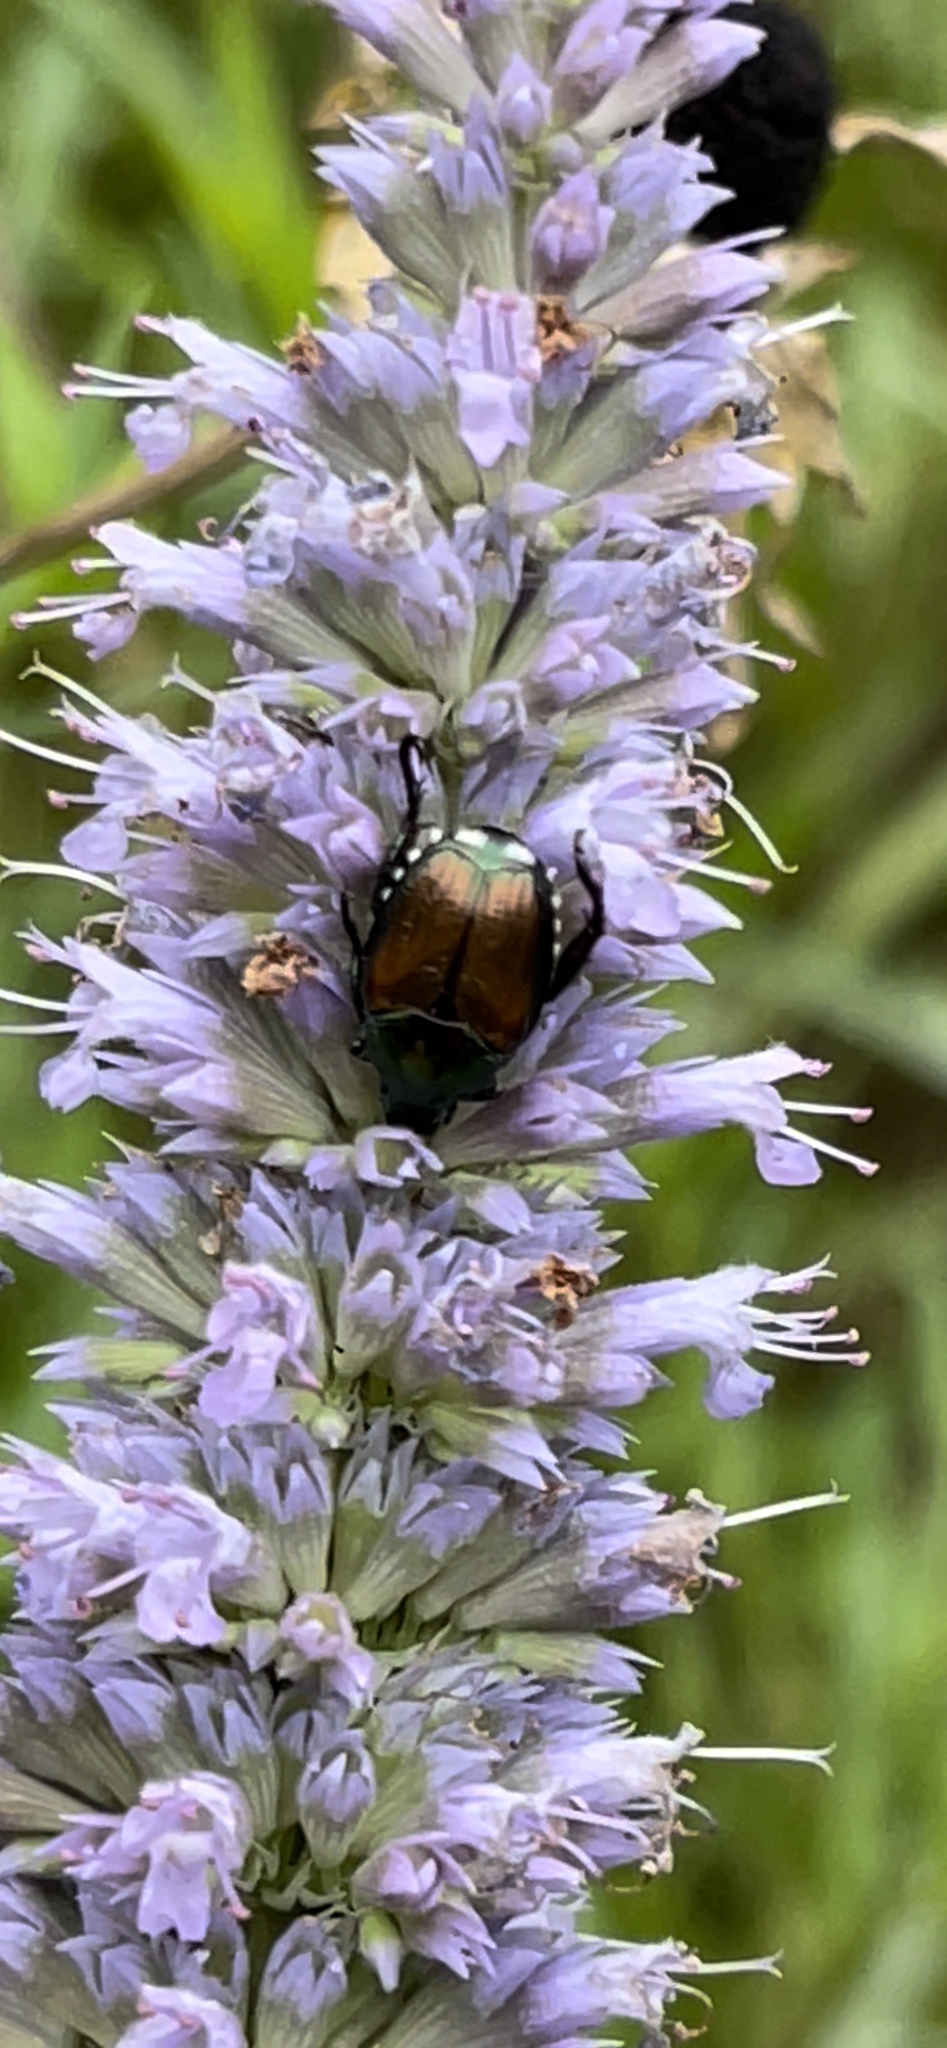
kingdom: Animalia
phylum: Arthropoda
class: Insecta
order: Coleoptera
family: Scarabaeidae
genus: Popillia
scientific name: Popillia japonica
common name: Japanese beetle
